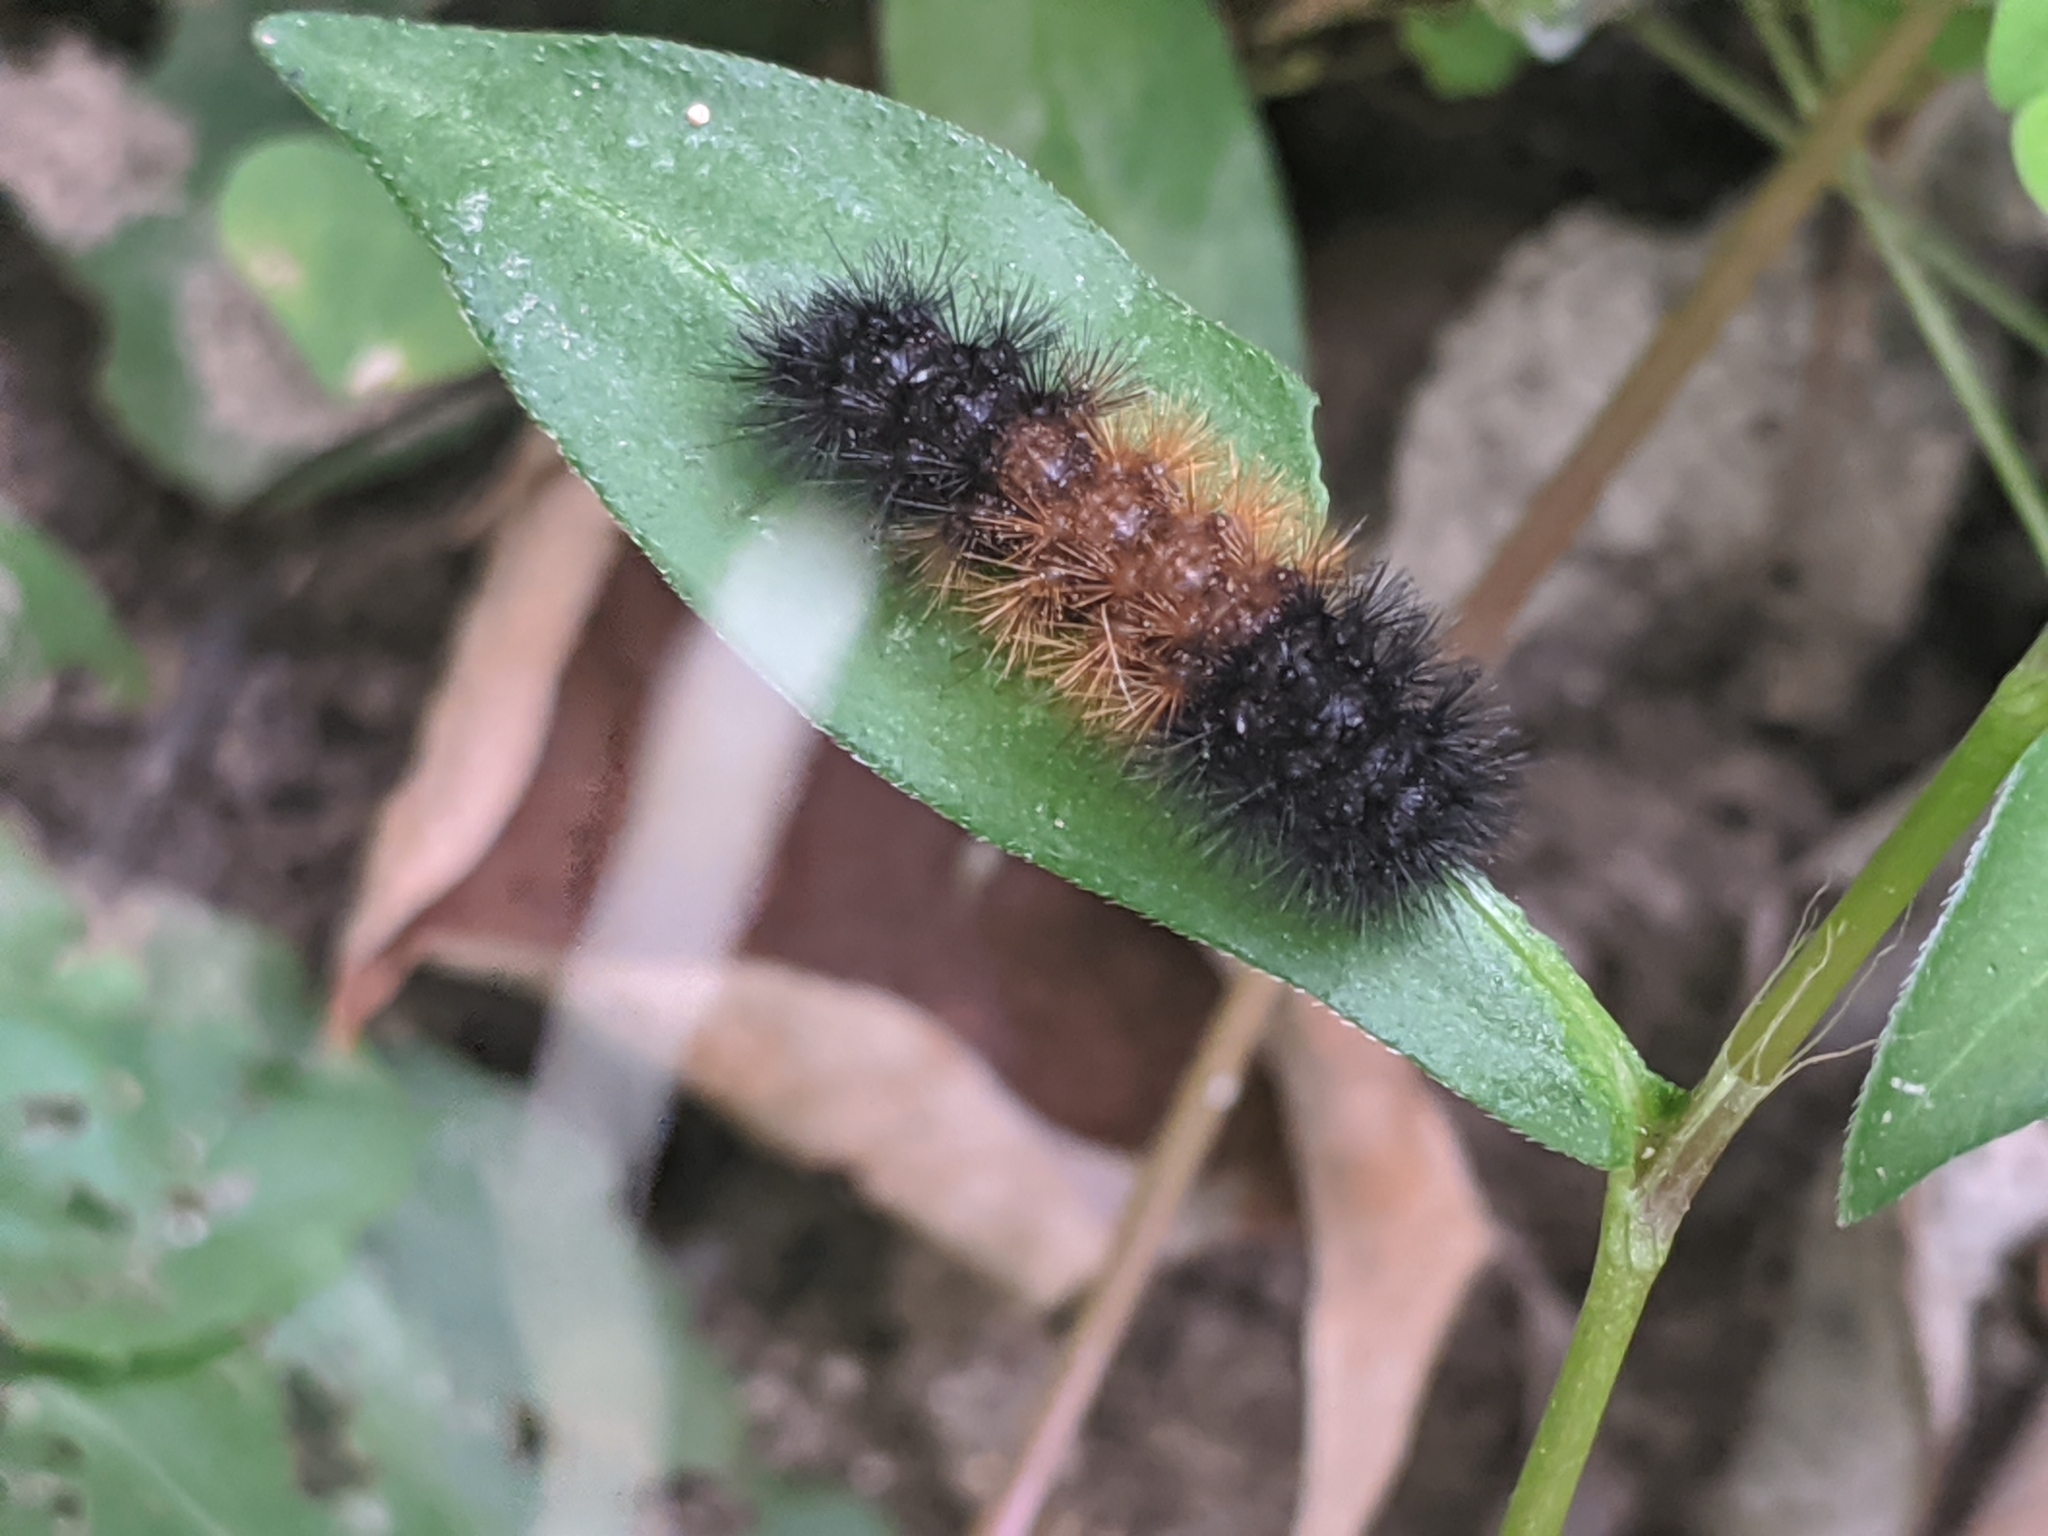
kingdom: Animalia
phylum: Arthropoda
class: Insecta
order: Lepidoptera
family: Erebidae
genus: Pyrrharctia
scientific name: Pyrrharctia isabella
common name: Isabella tiger moth
